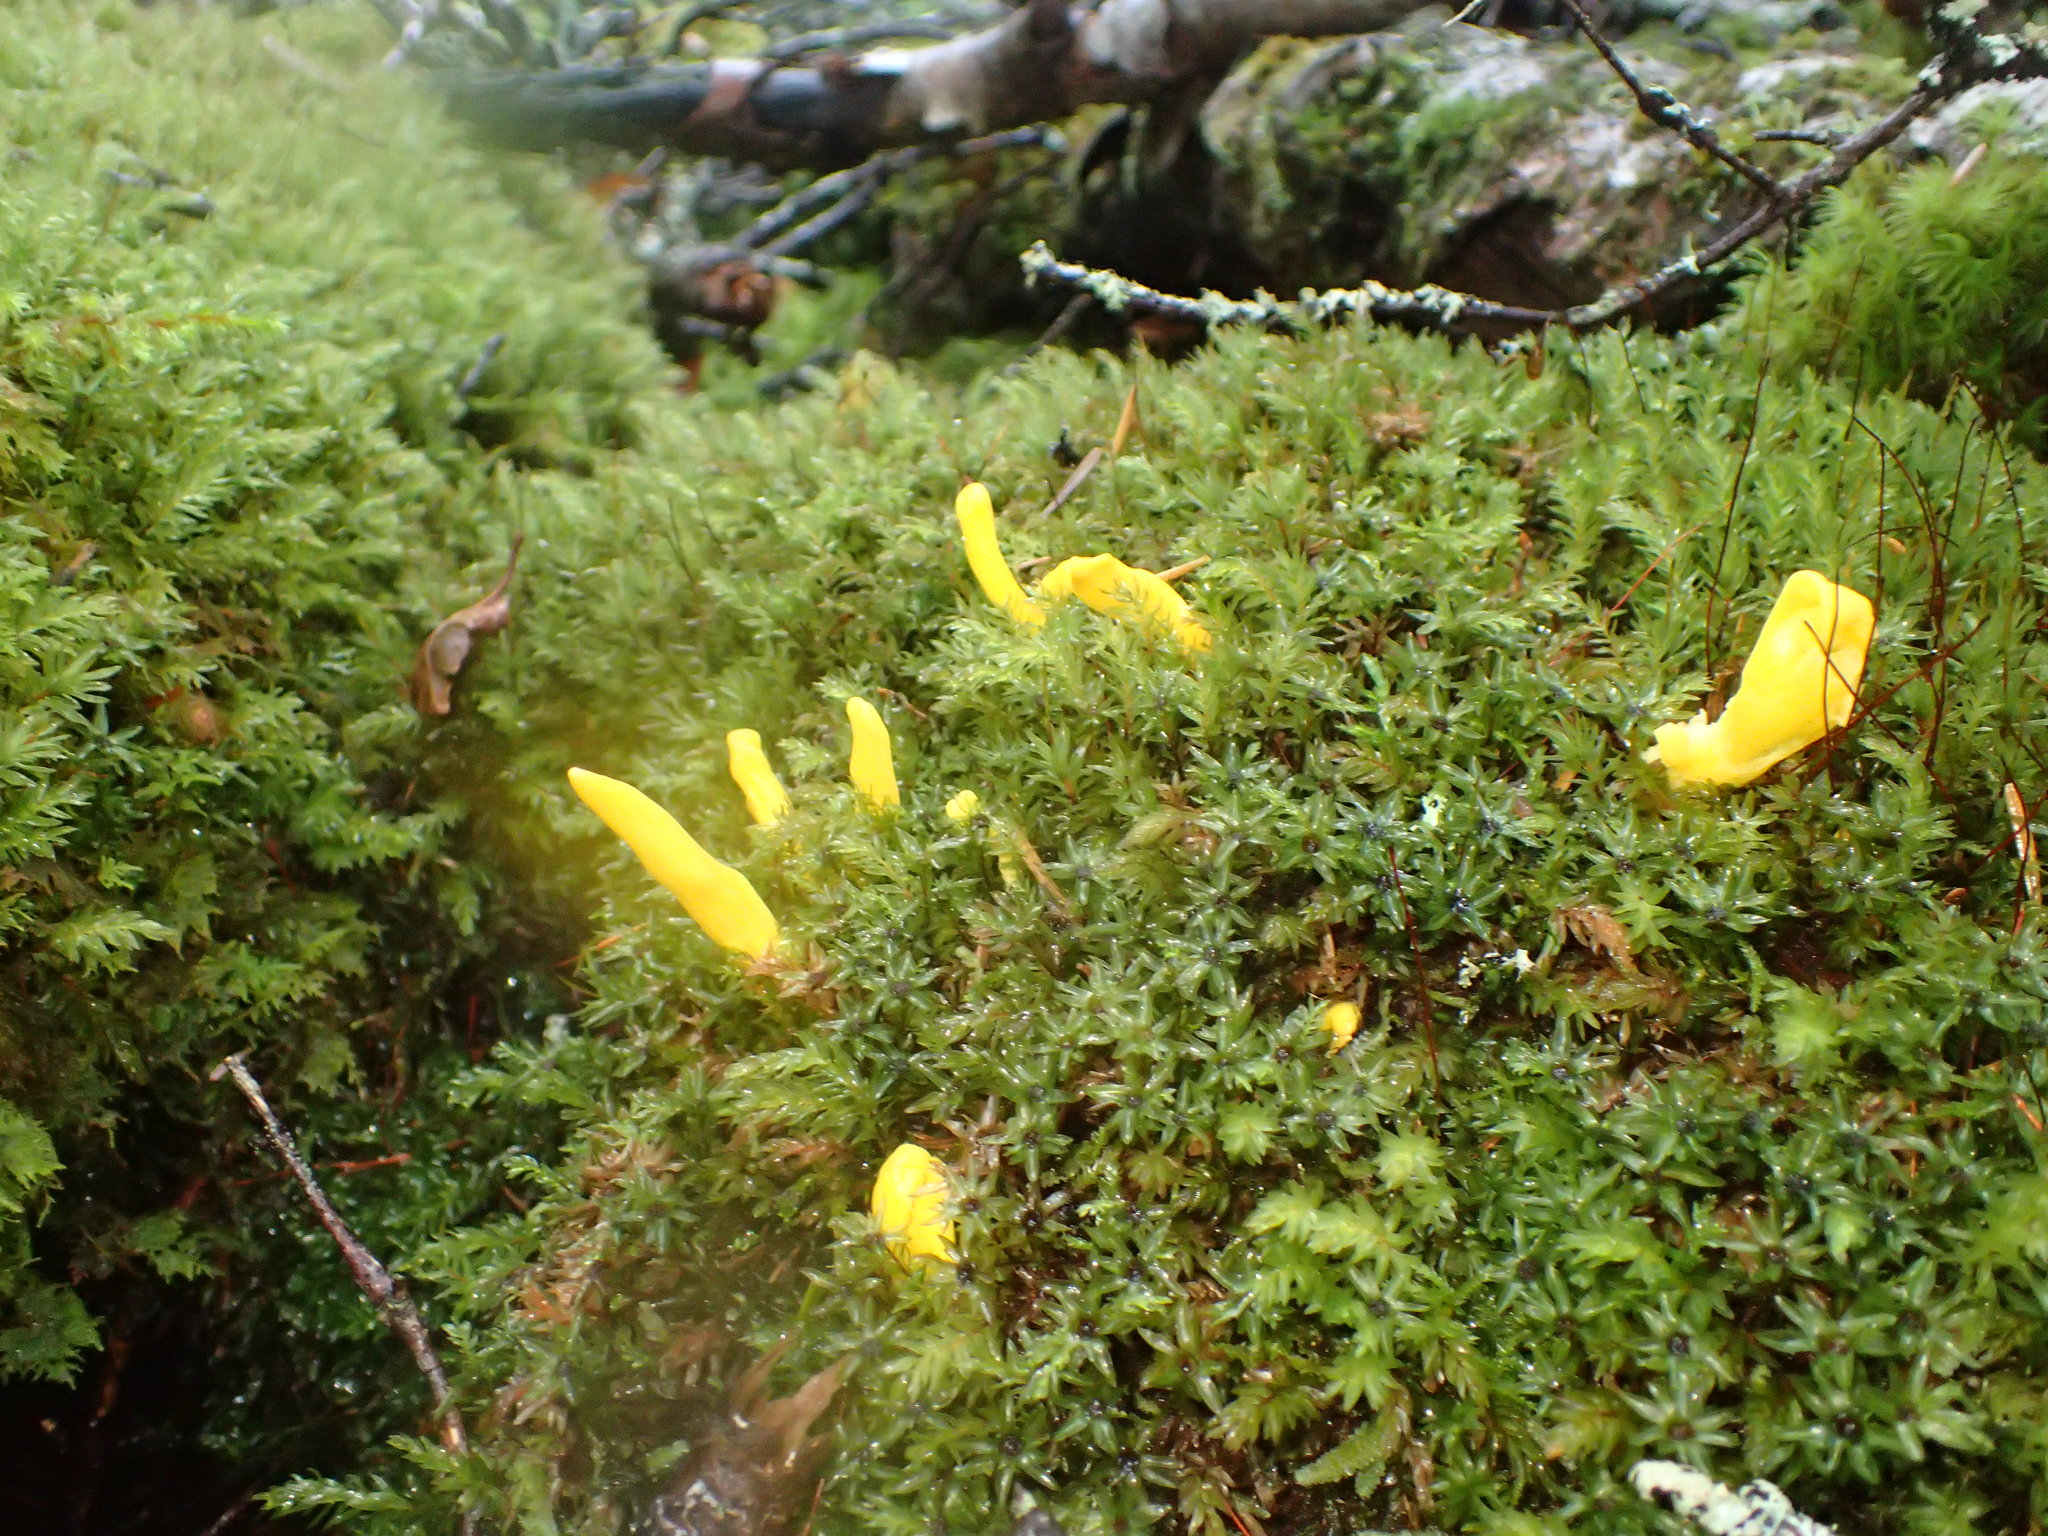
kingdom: Fungi
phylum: Ascomycota
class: Neolectomycetes
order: Neolectales
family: Neolectaceae
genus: Neolecta
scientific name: Neolecta irregularis
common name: Irregular earth tongue
